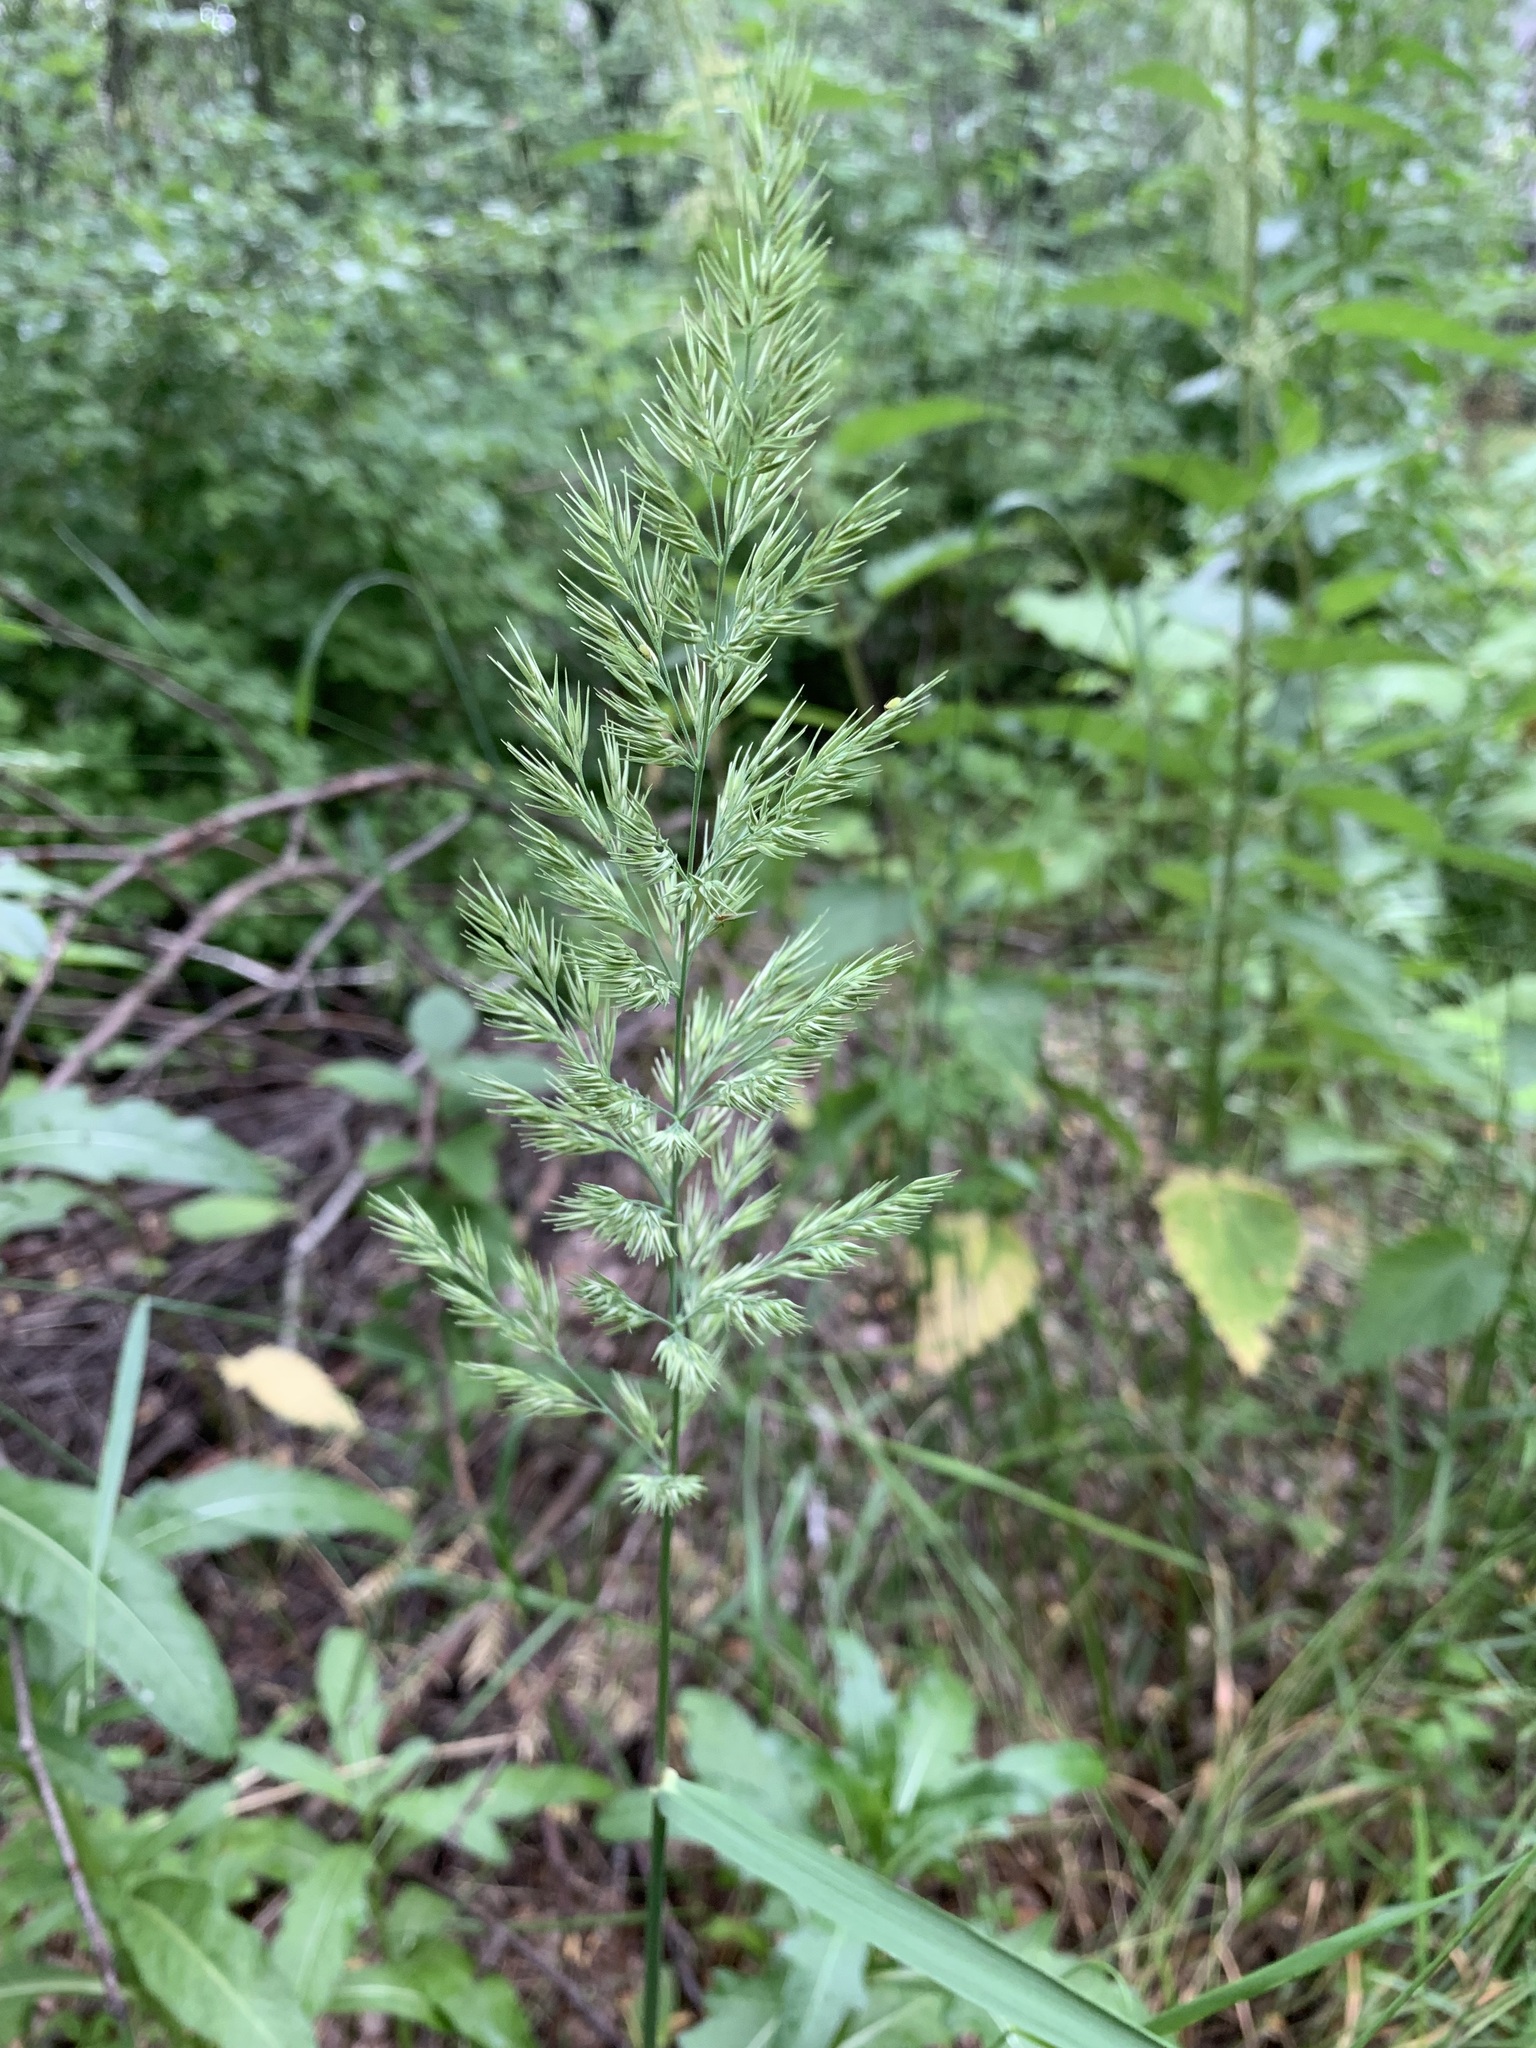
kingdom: Plantae
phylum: Tracheophyta
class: Liliopsida
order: Poales
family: Poaceae
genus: Calamagrostis
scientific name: Calamagrostis epigejos
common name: Wood small-reed
